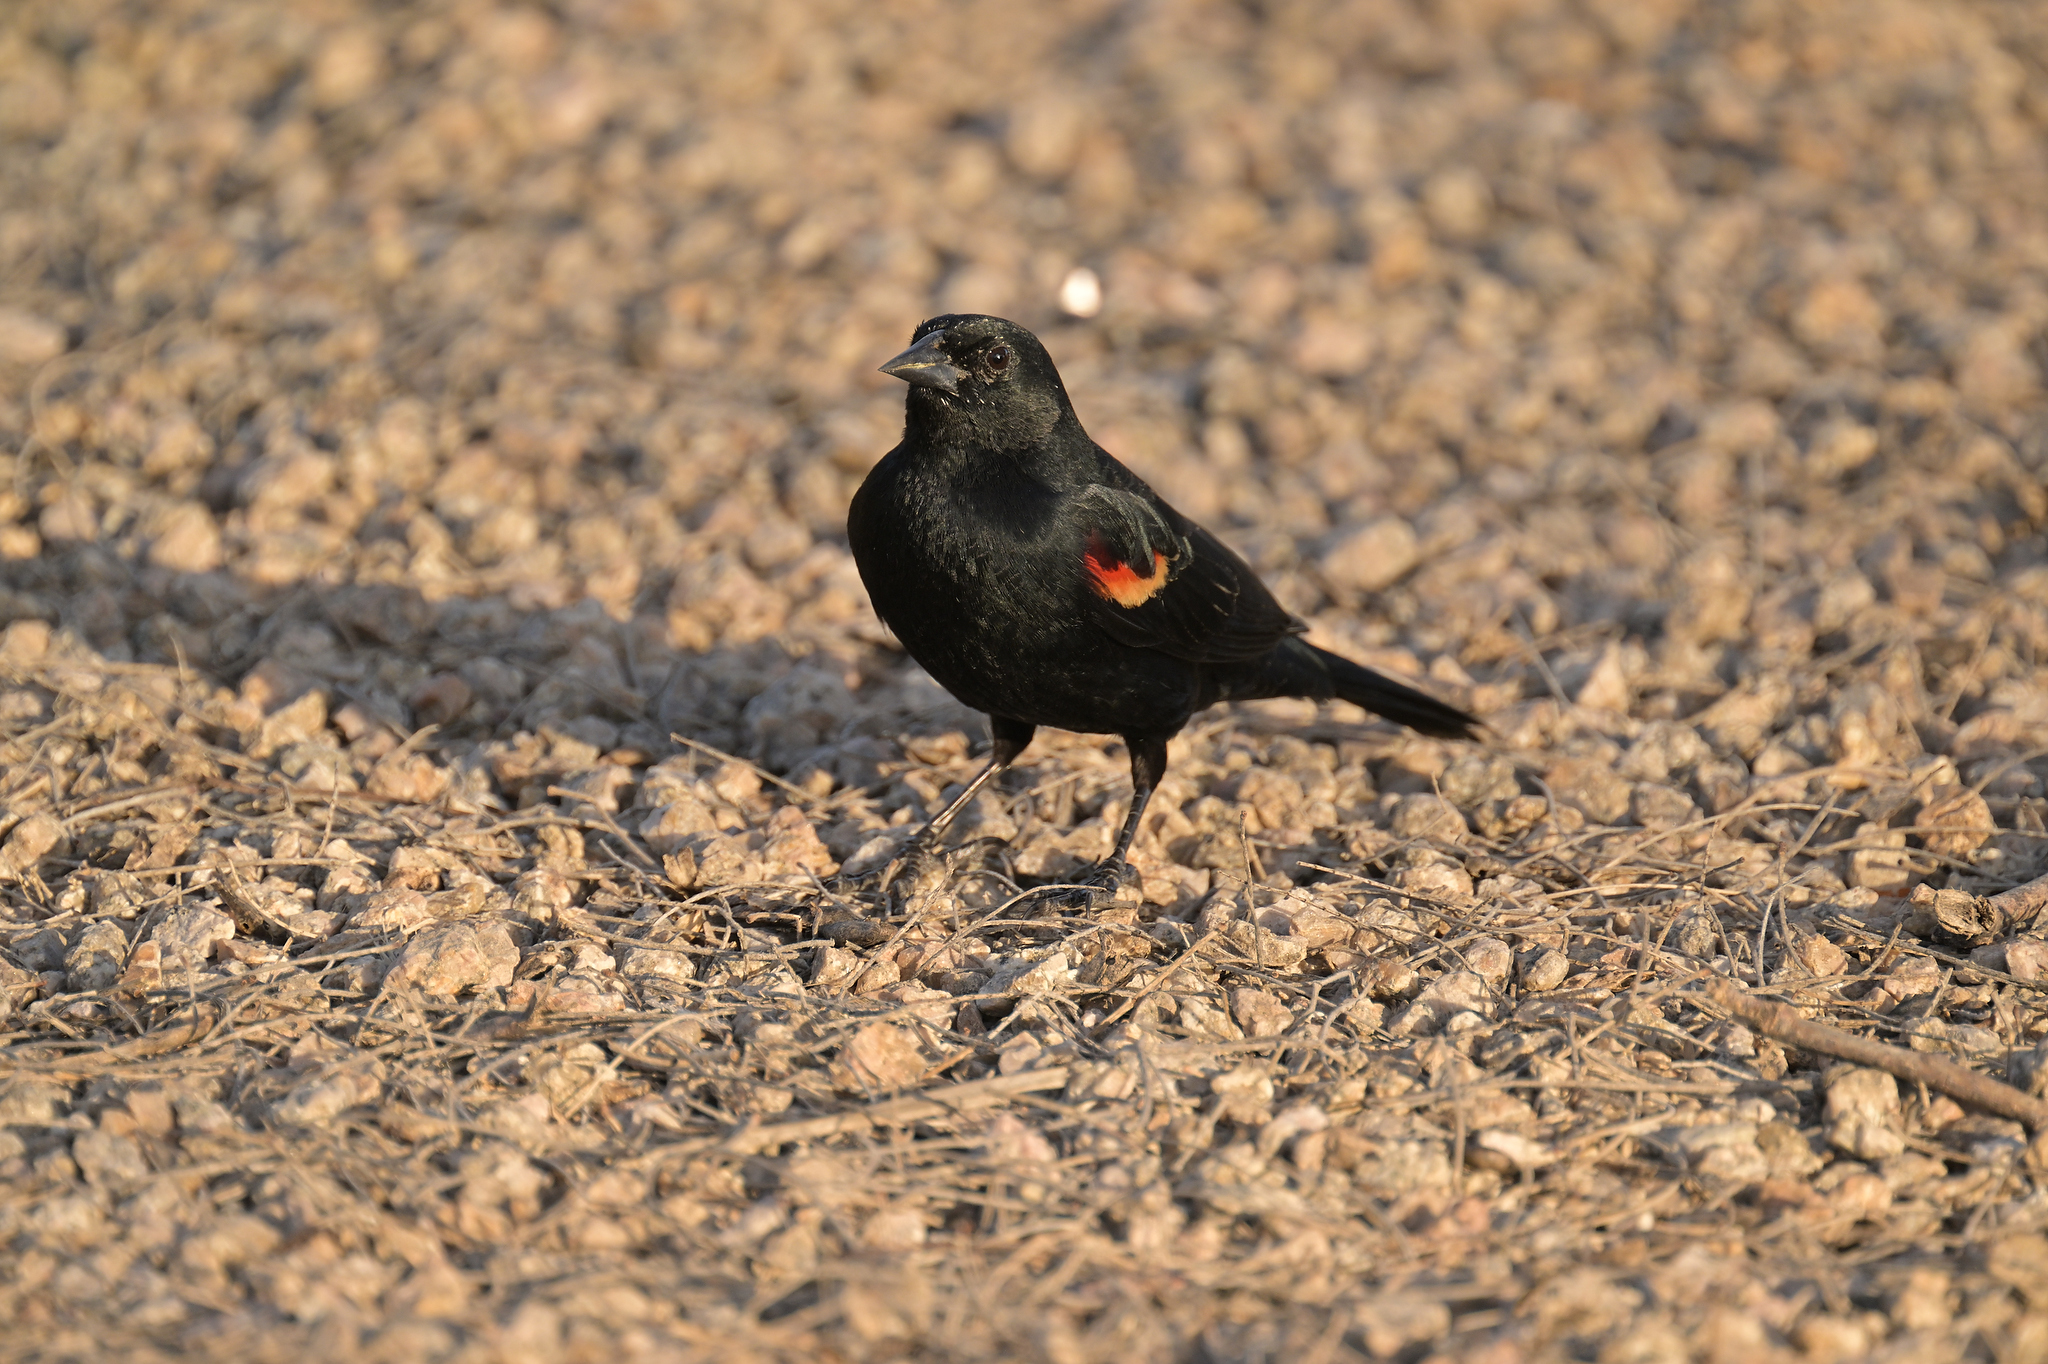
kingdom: Animalia
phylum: Chordata
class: Aves
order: Passeriformes
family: Icteridae
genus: Agelaius
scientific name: Agelaius phoeniceus
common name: Red-winged blackbird
